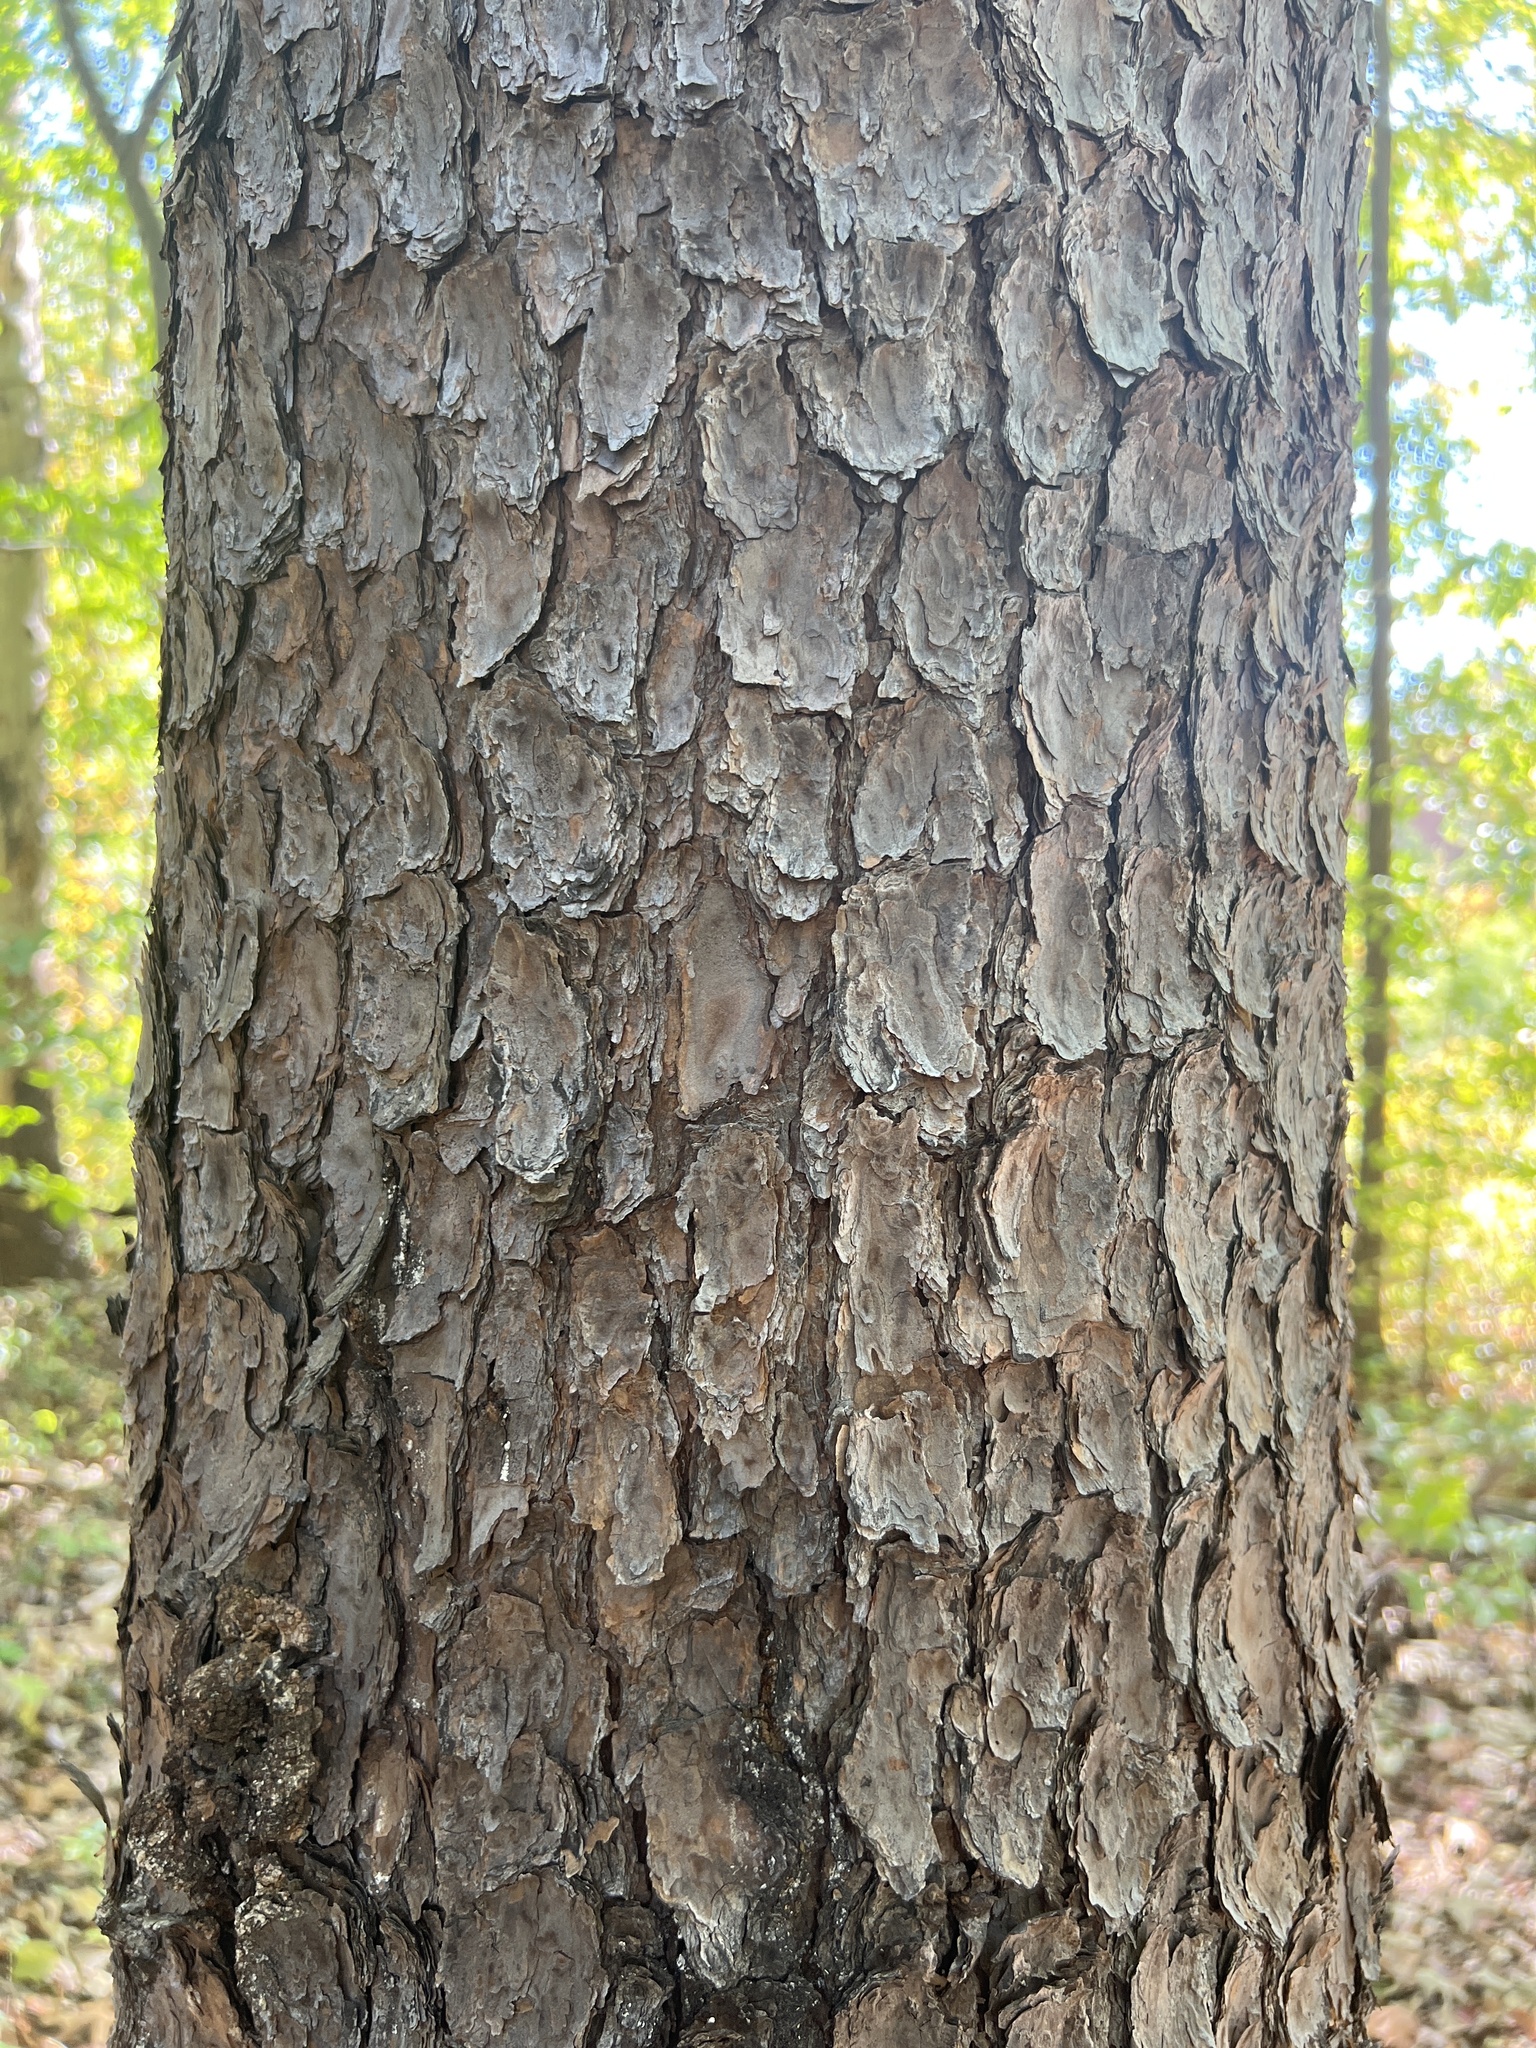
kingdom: Plantae
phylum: Tracheophyta
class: Pinopsida
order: Pinales
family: Pinaceae
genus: Pinus
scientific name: Pinus virginiana
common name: Scrub pine
